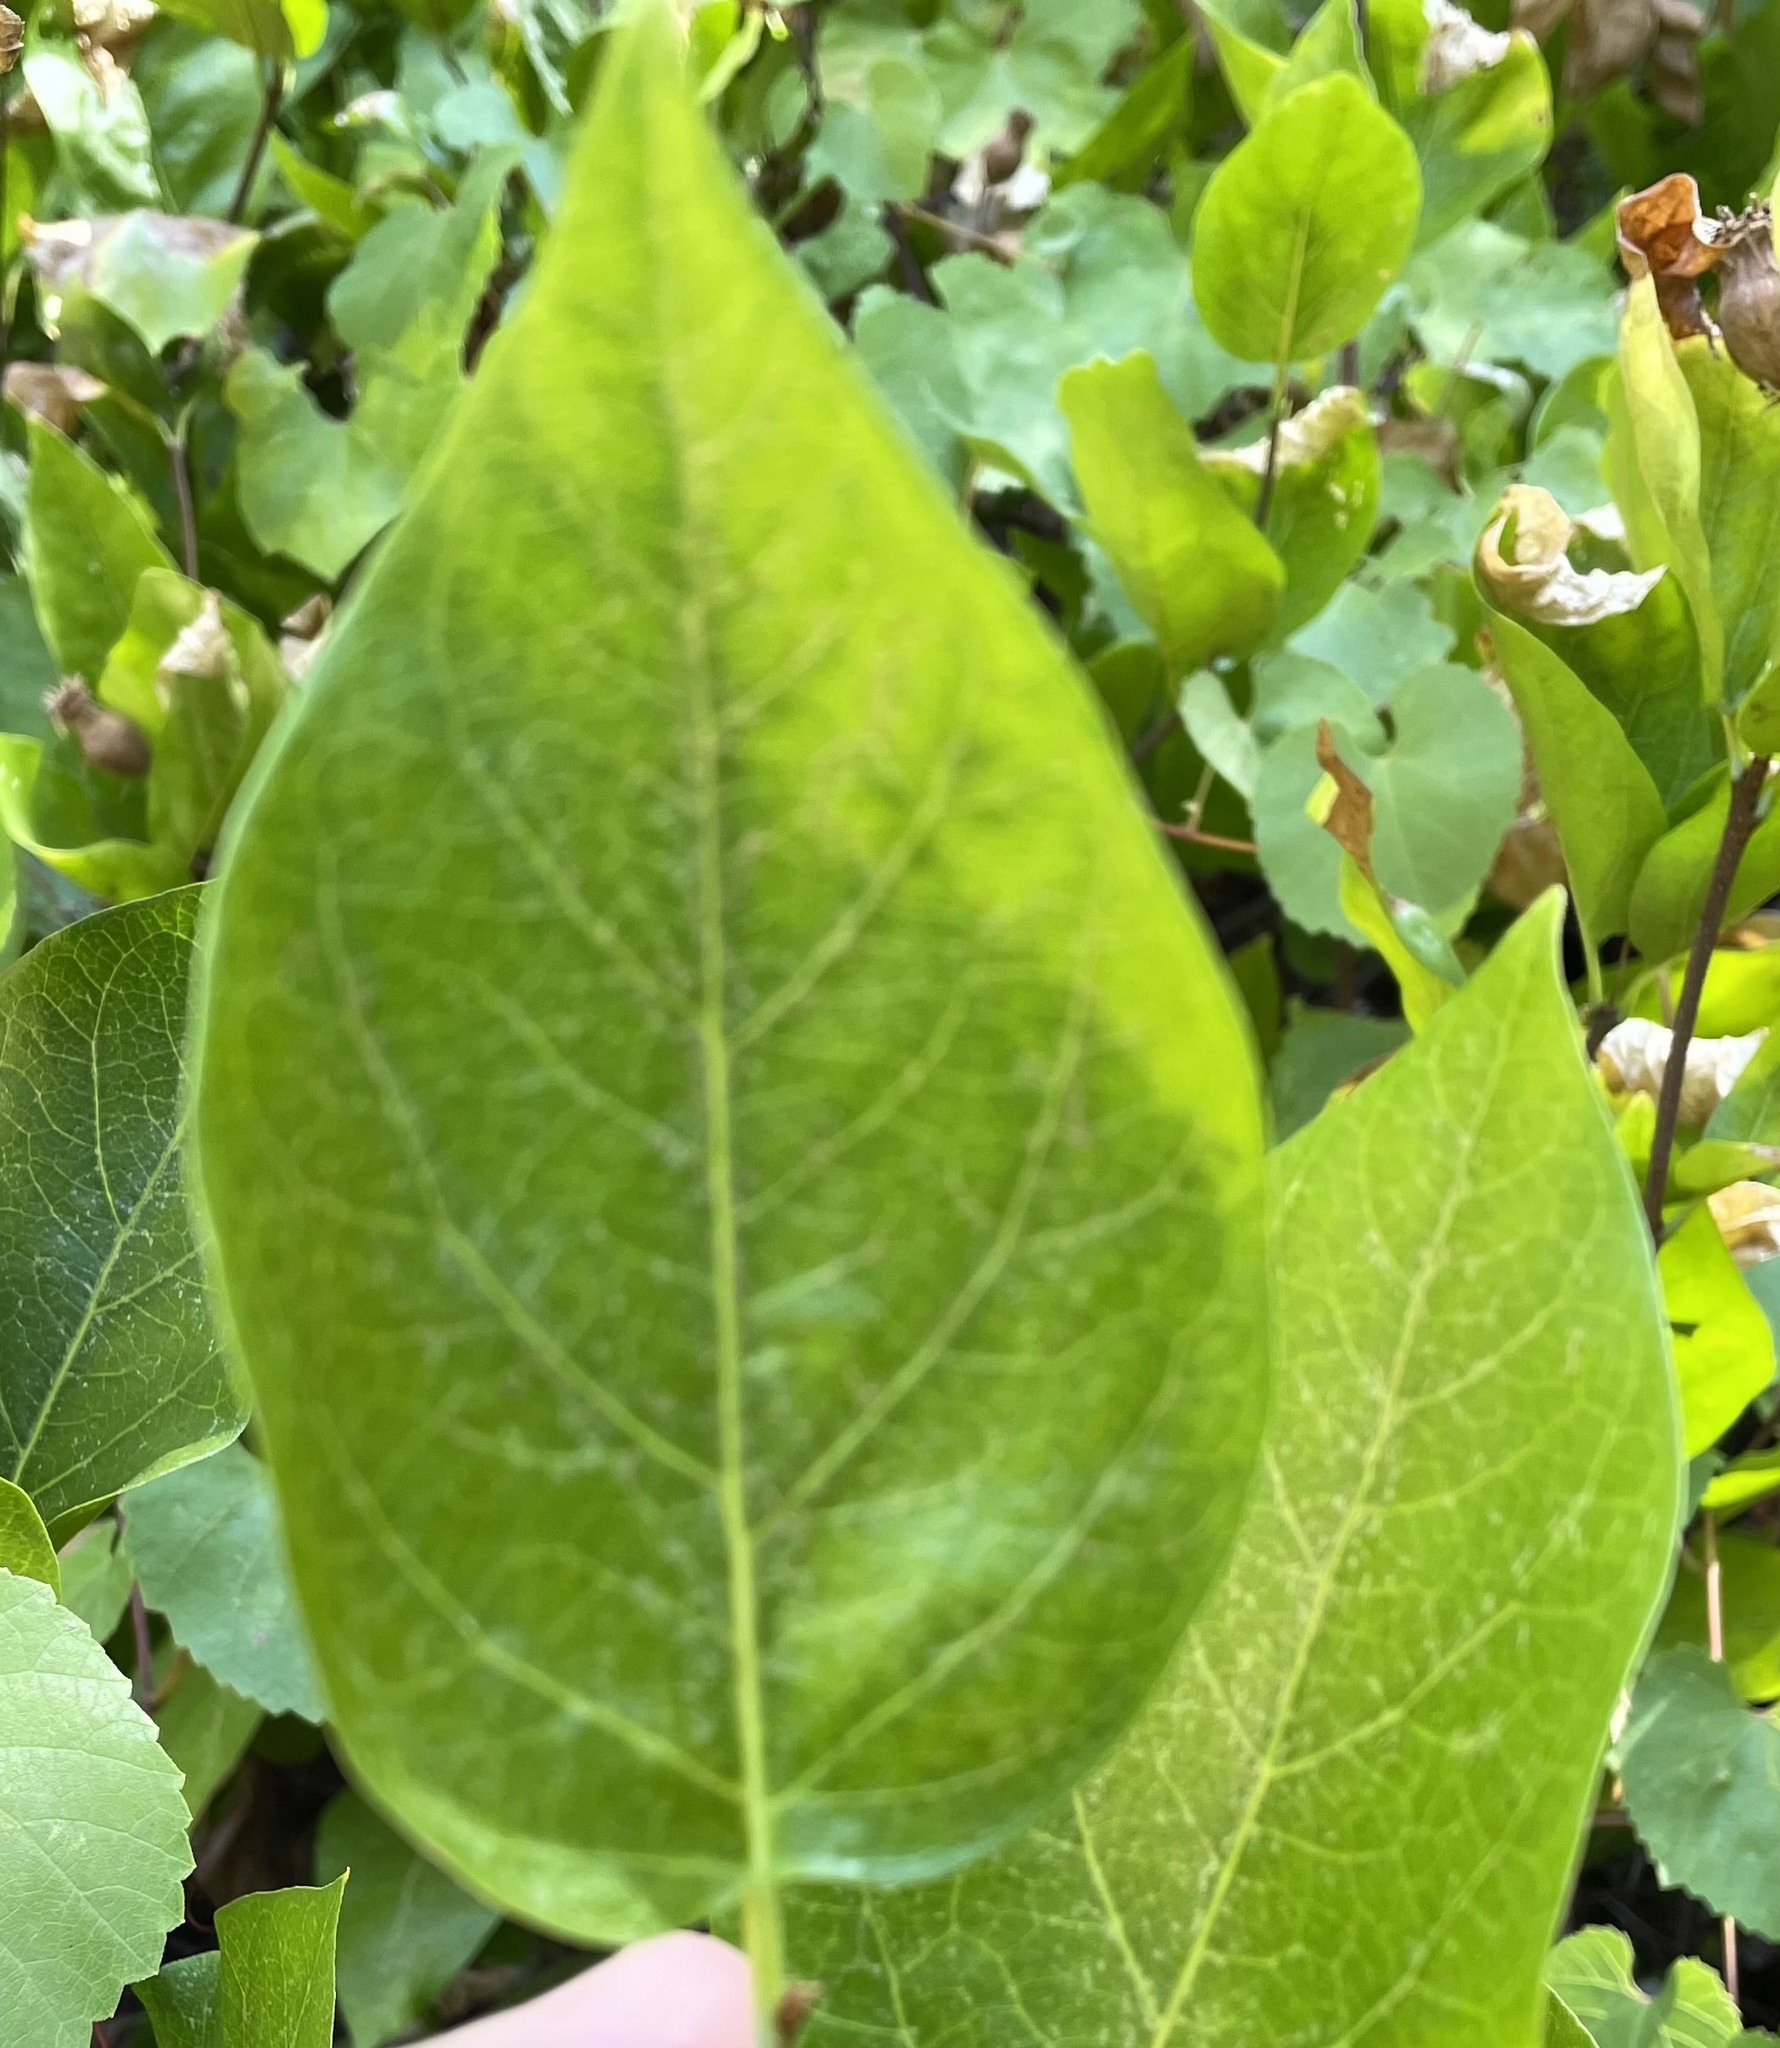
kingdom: Plantae
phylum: Tracheophyta
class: Magnoliopsida
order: Laurales
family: Calycanthaceae
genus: Calycanthus
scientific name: Calycanthus occidentalis
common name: California spicebush
